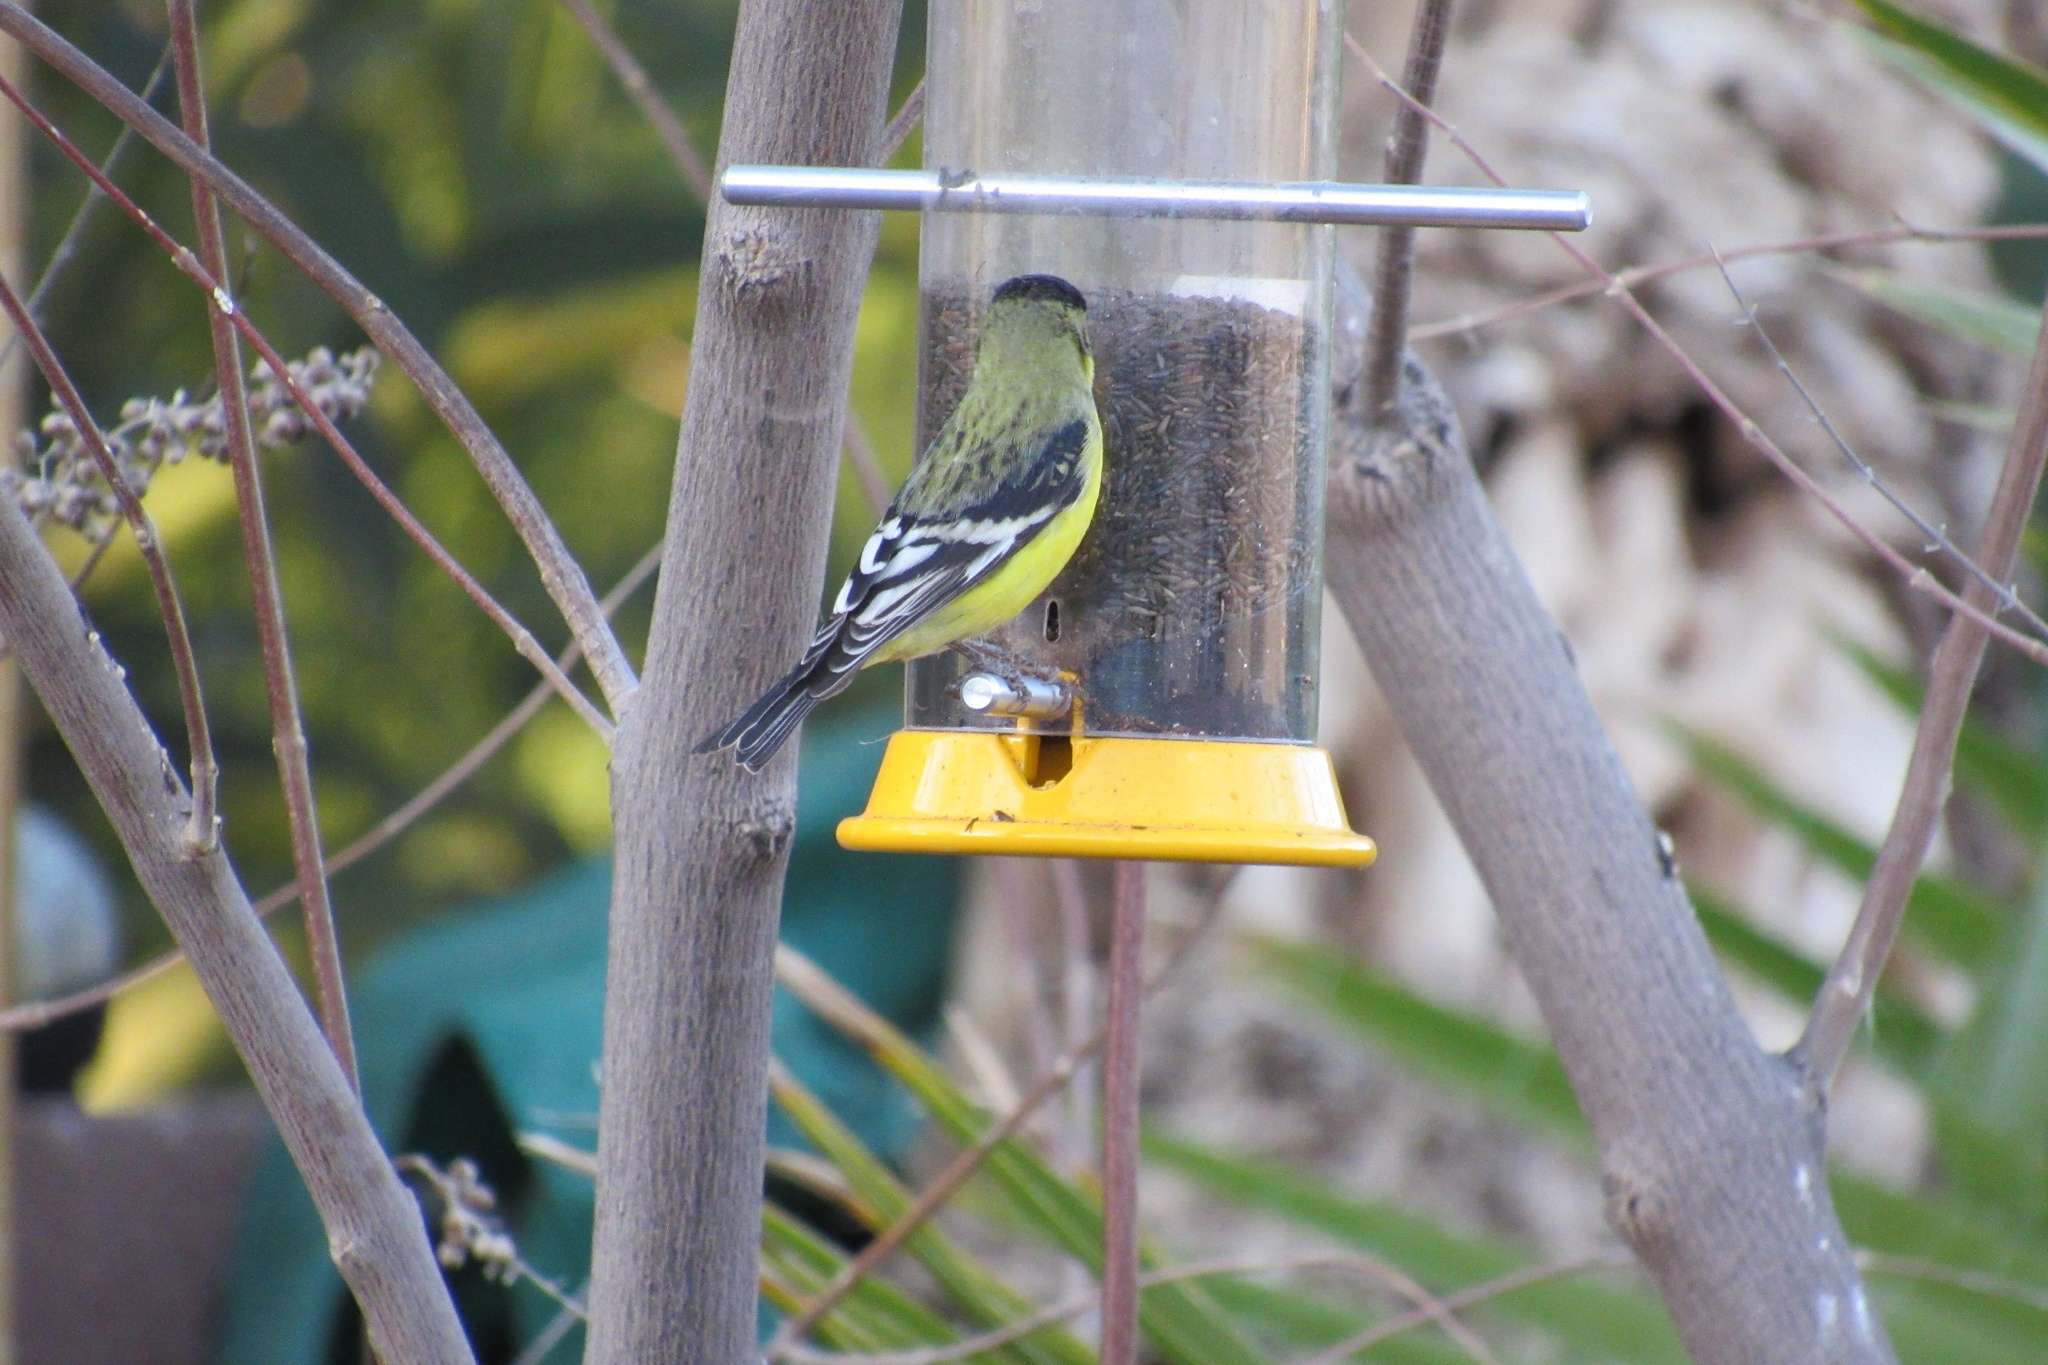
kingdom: Animalia
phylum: Chordata
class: Aves
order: Passeriformes
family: Fringillidae
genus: Spinus
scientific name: Spinus psaltria
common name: Lesser goldfinch
